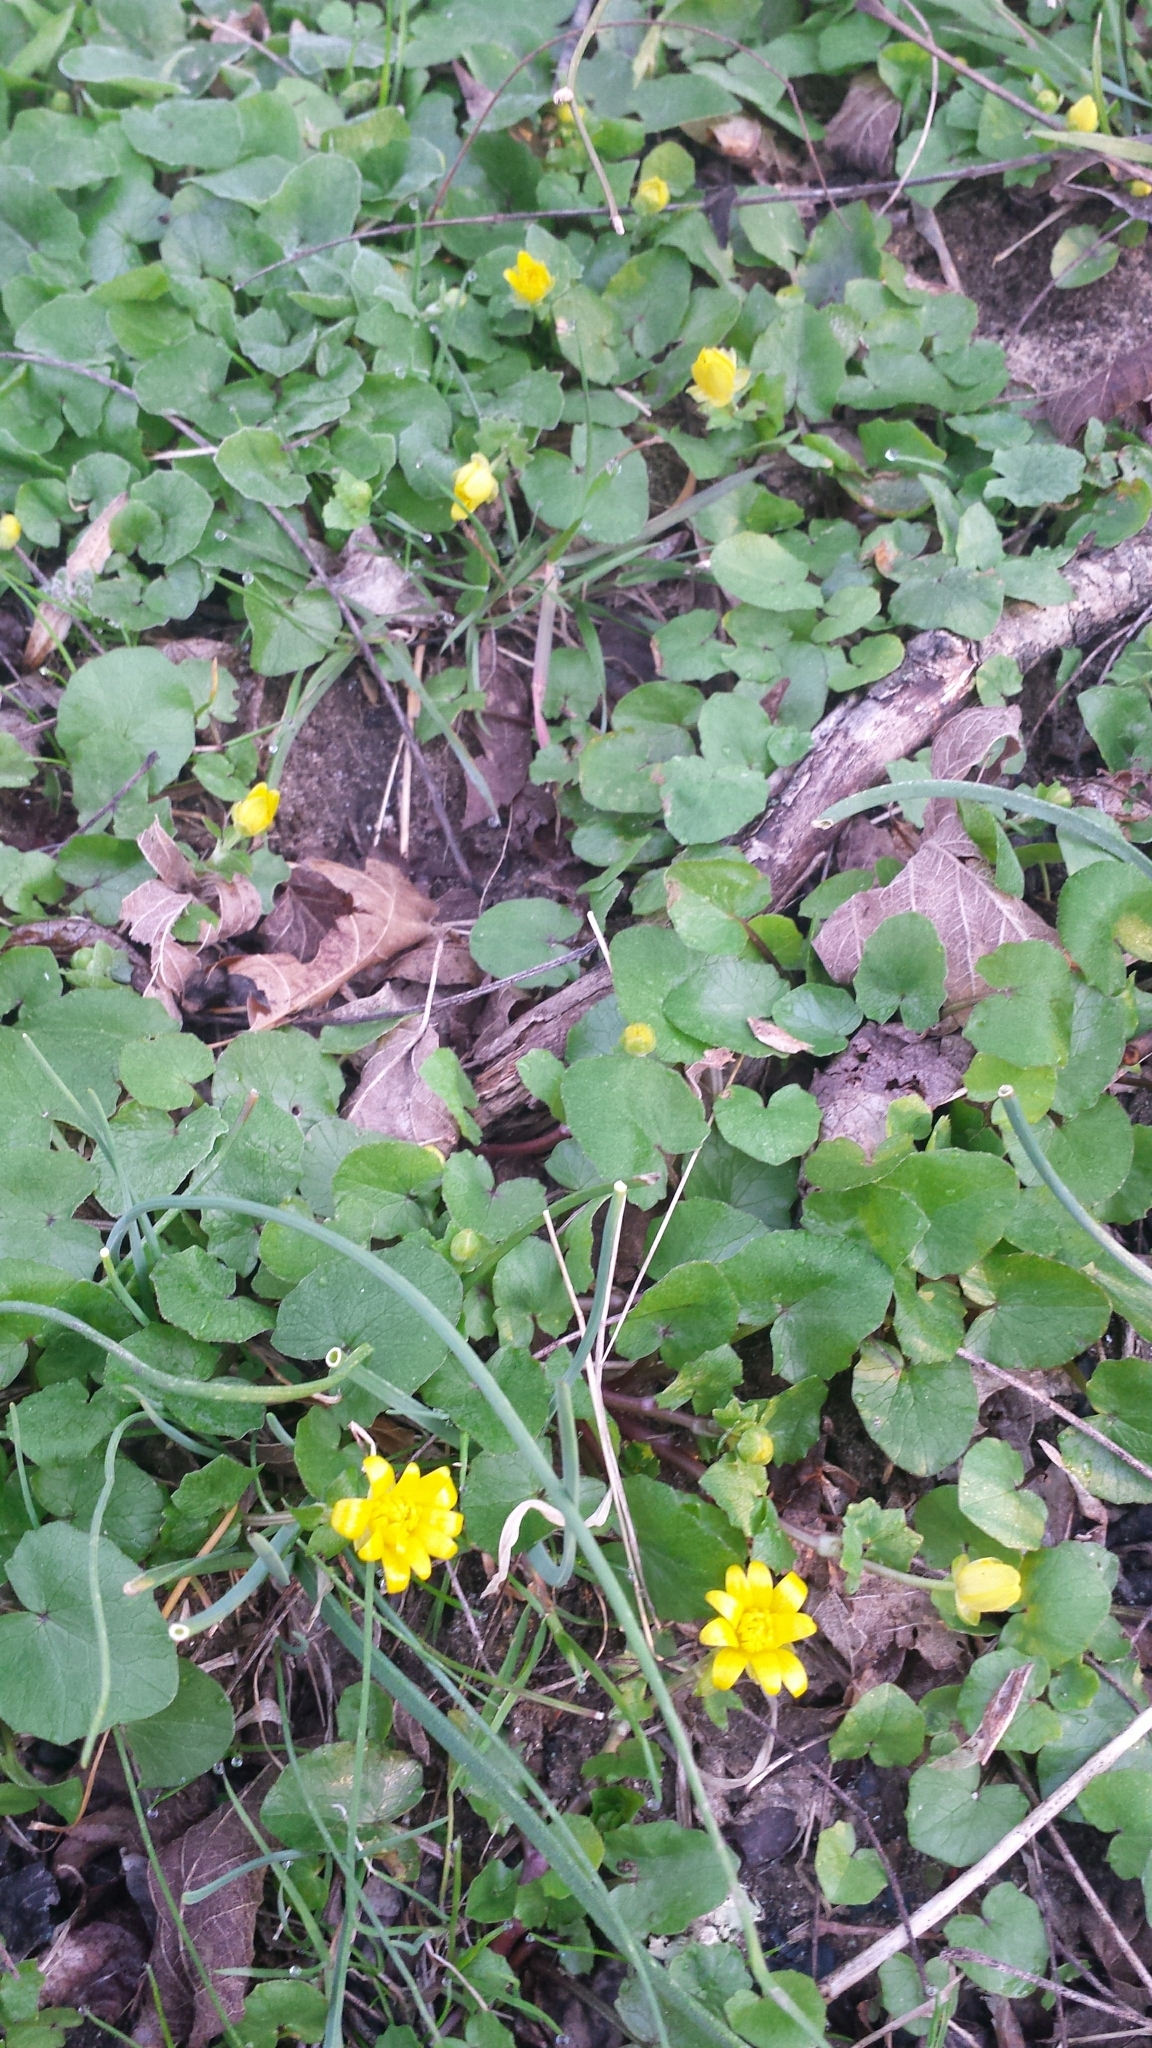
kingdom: Plantae
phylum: Tracheophyta
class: Magnoliopsida
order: Ranunculales
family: Ranunculaceae
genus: Ficaria
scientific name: Ficaria verna
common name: Lesser celandine
